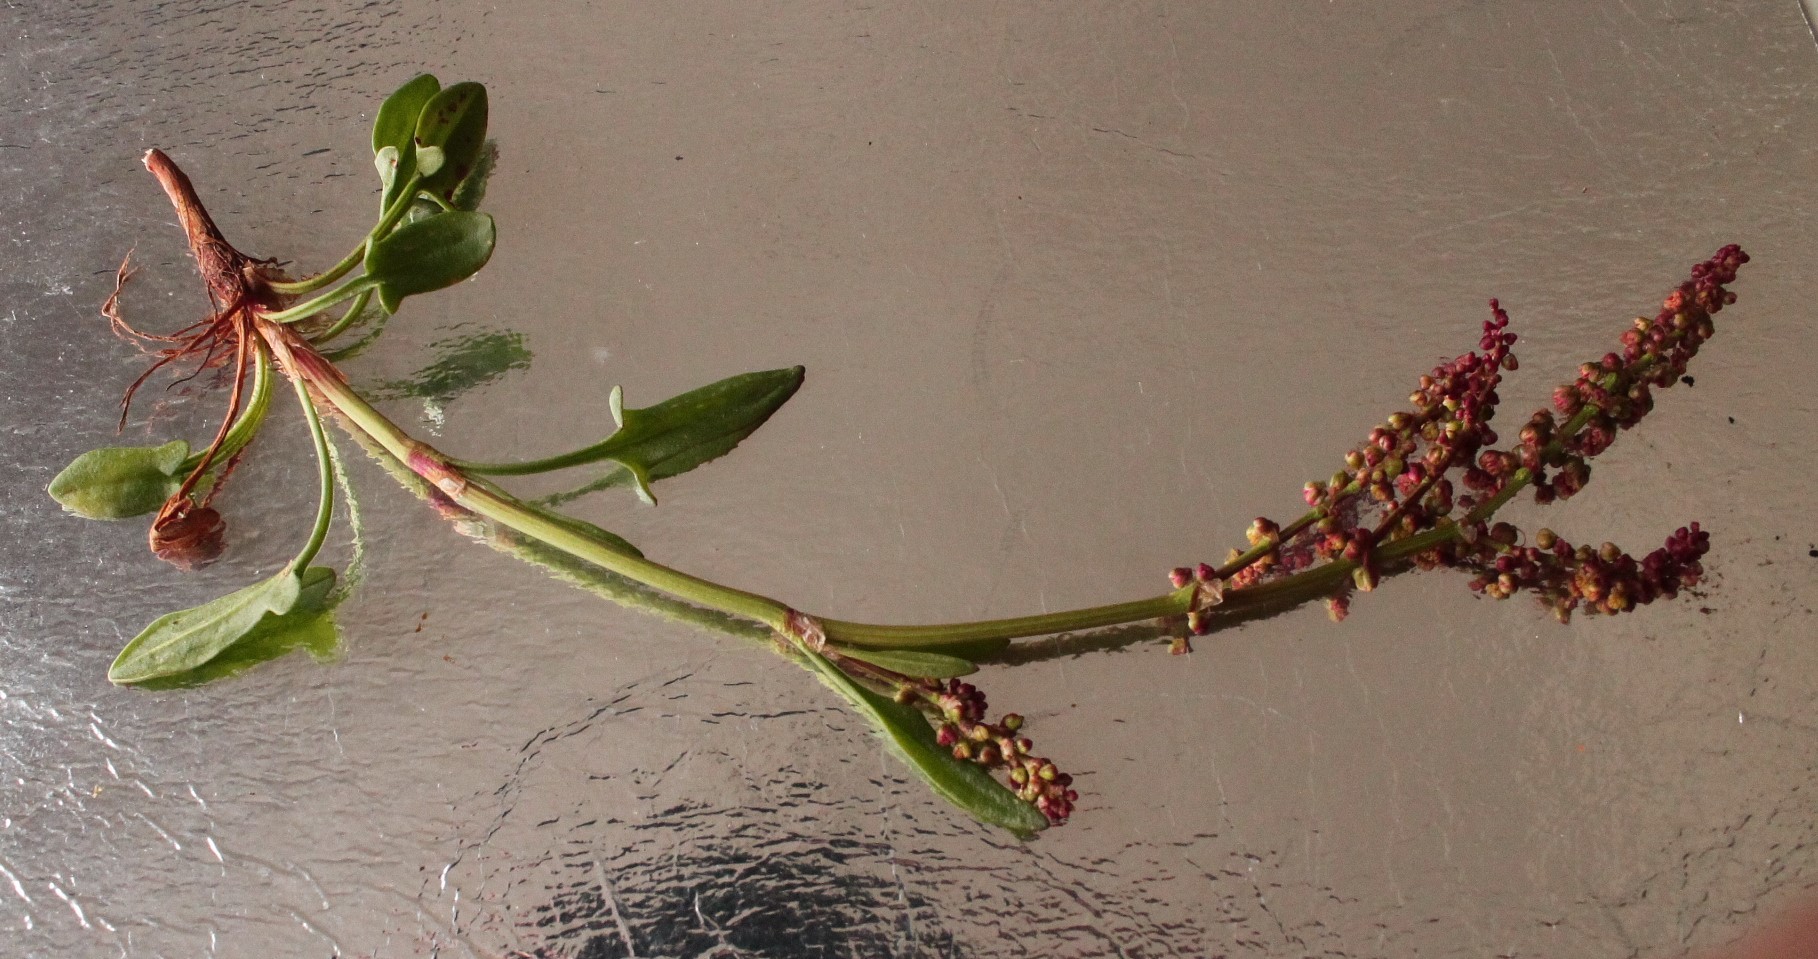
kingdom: Plantae
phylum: Tracheophyta
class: Magnoliopsida
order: Caryophyllales
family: Polygonaceae
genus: Rumex
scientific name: Rumex acetosella
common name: Common sheep sorrel
